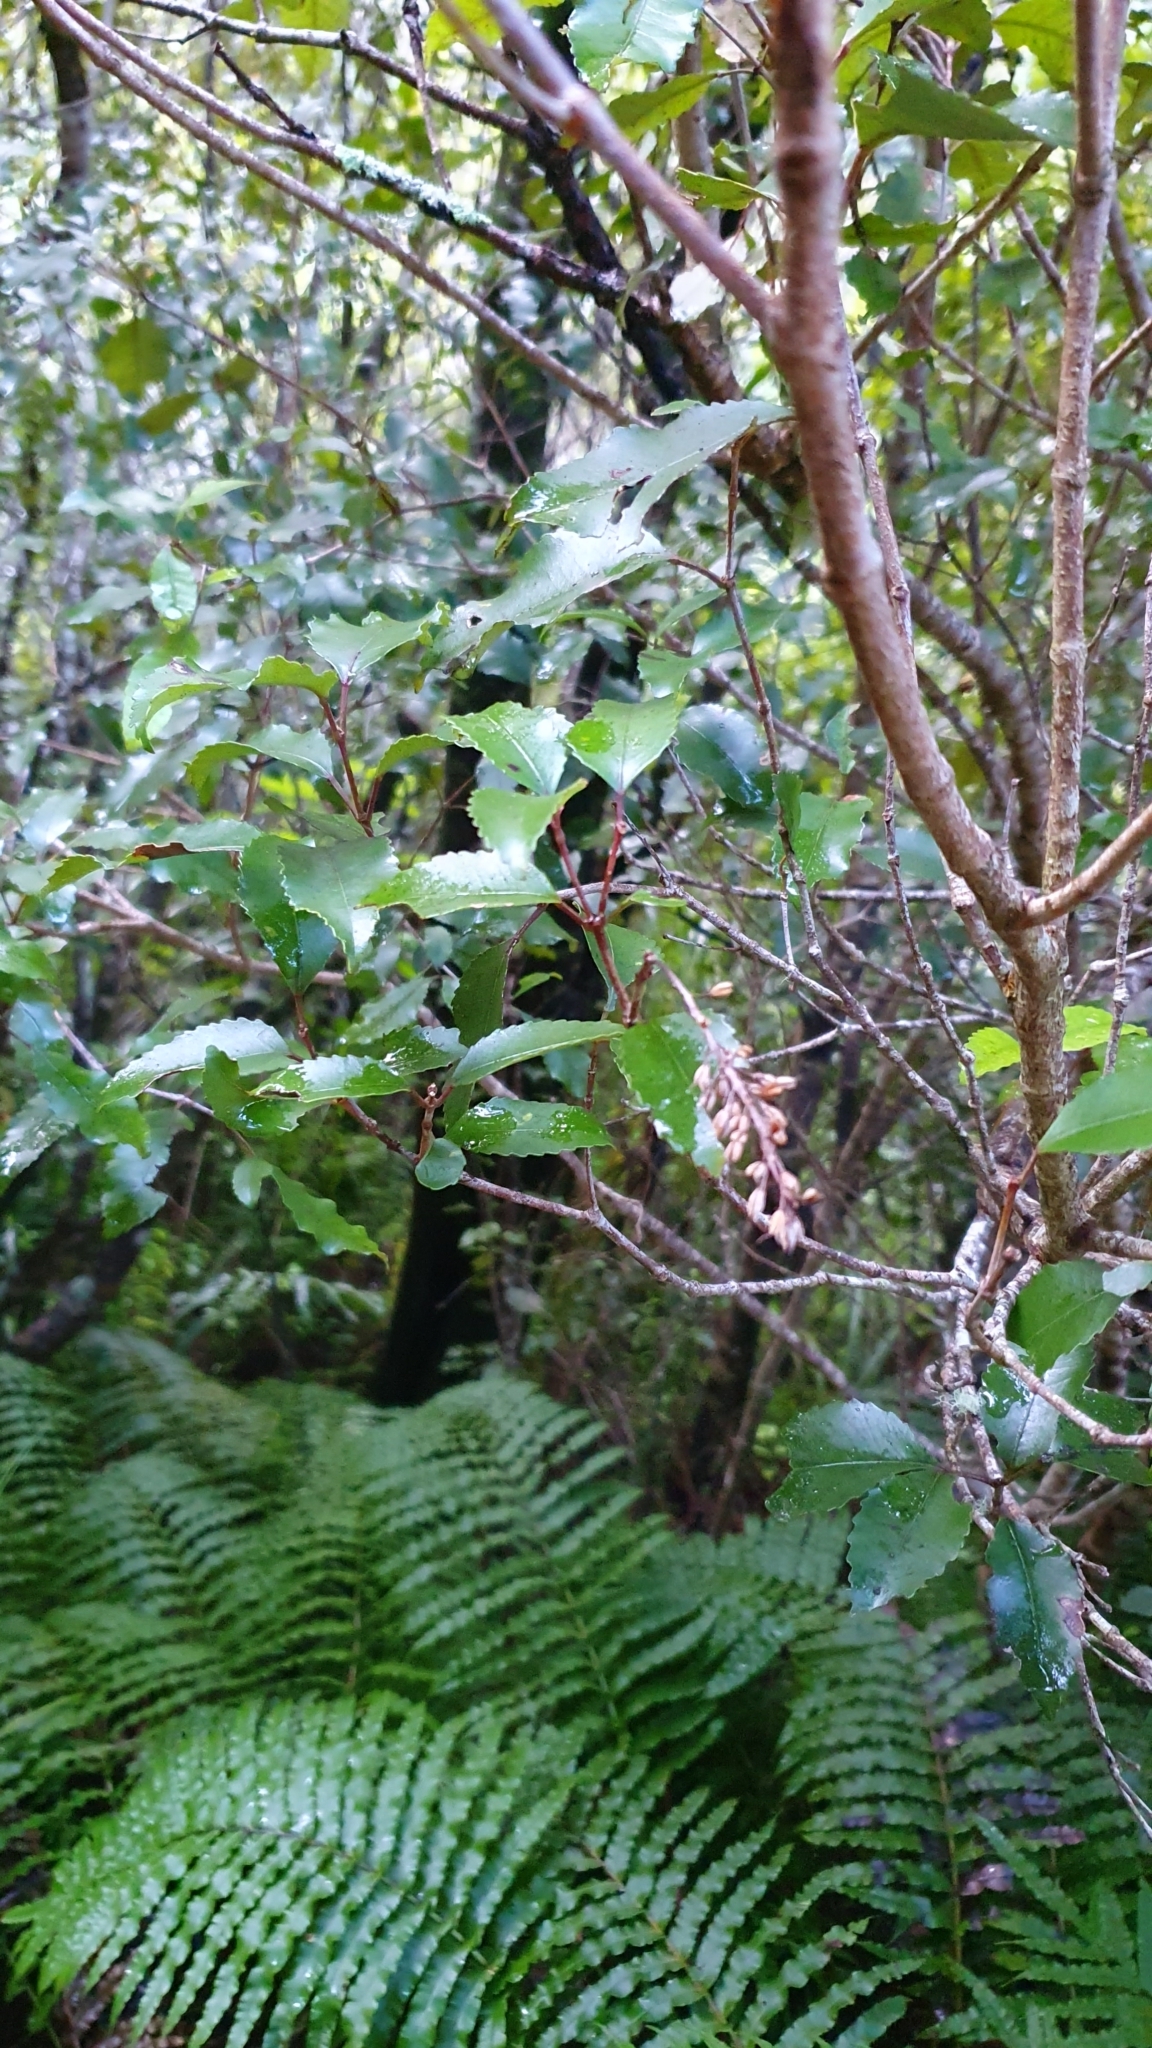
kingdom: Plantae
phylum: Tracheophyta
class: Magnoliopsida
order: Oxalidales
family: Cunoniaceae
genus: Pterophylla
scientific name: Pterophylla racemosa
